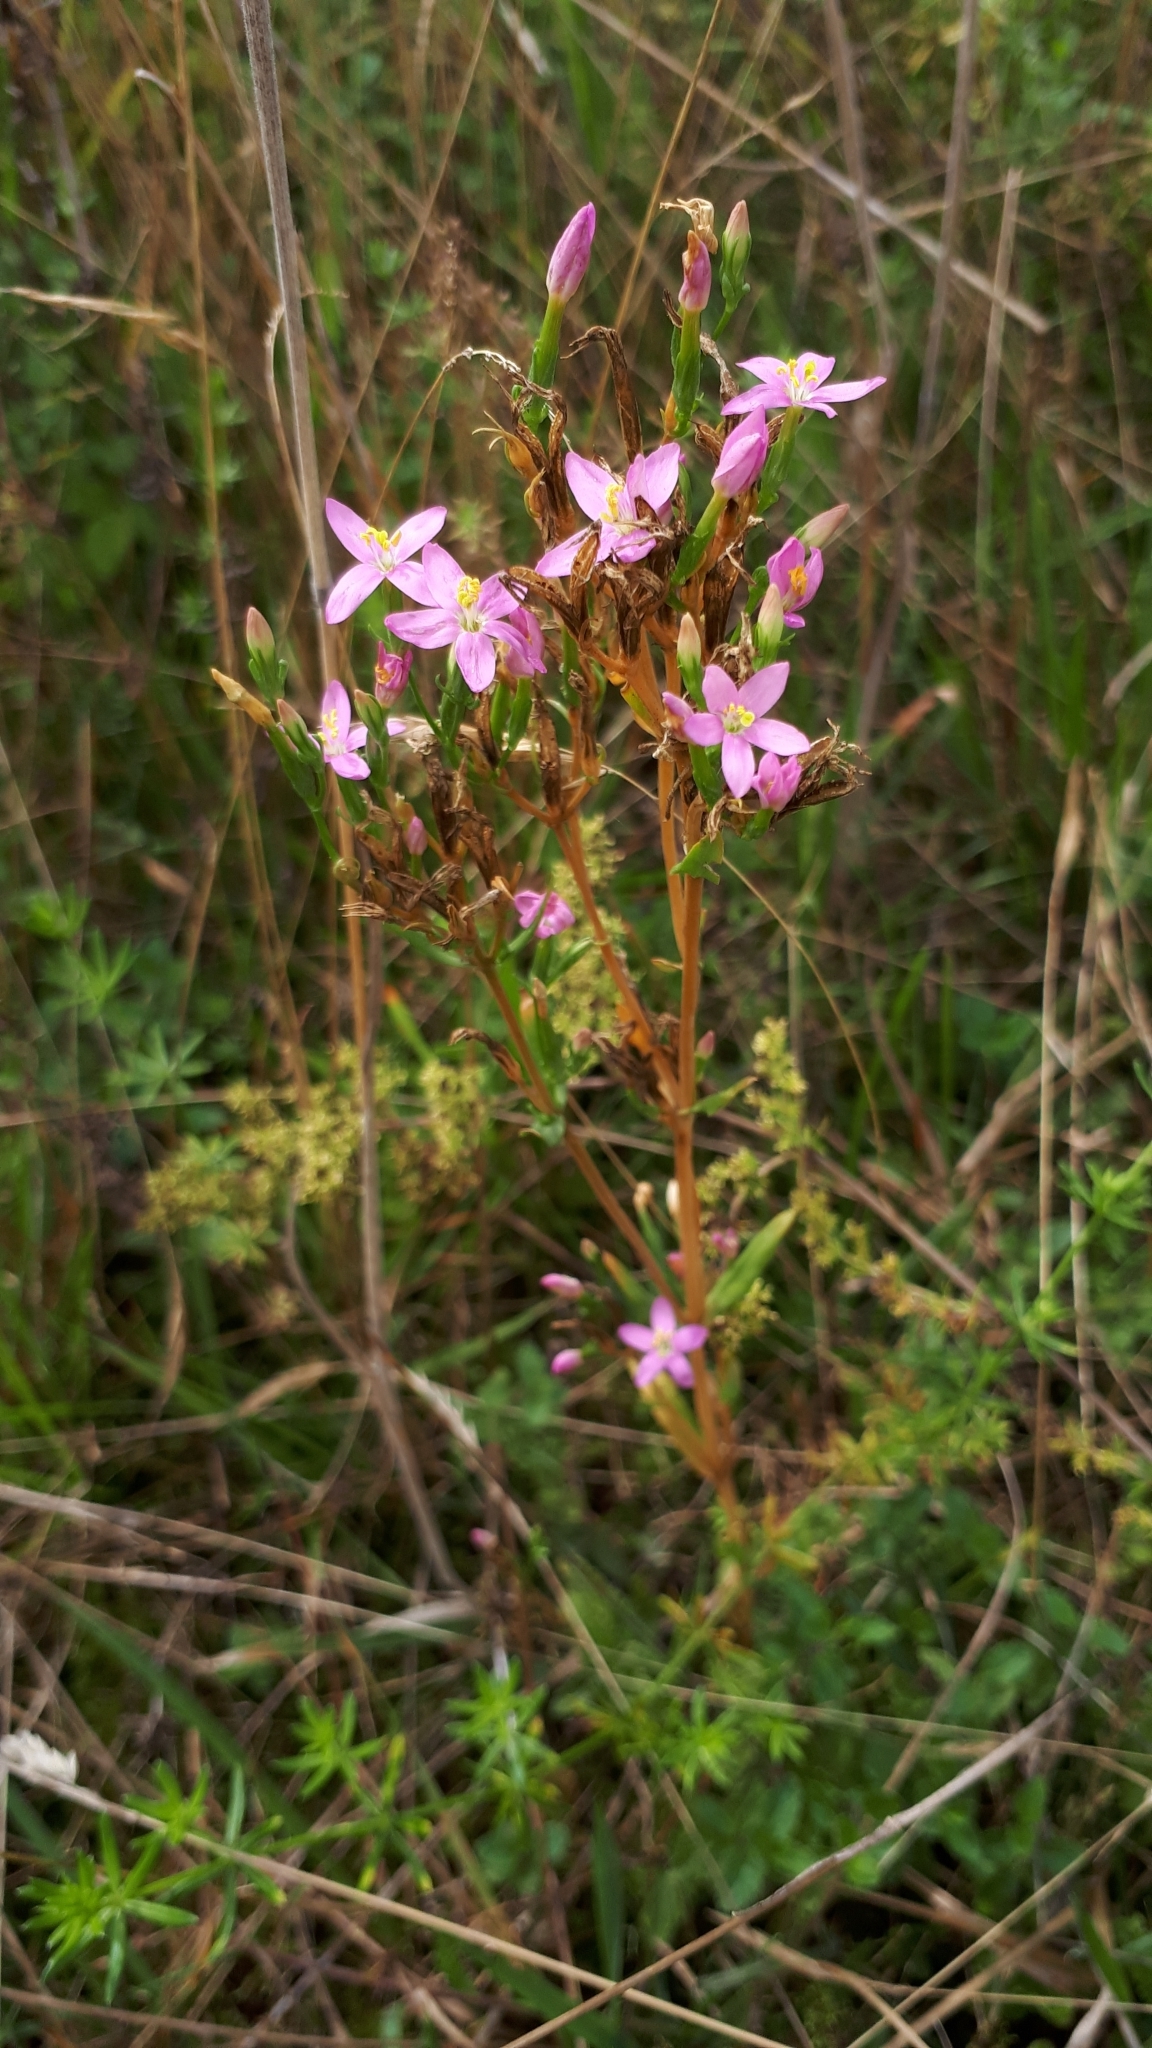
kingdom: Plantae
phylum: Tracheophyta
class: Magnoliopsida
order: Gentianales
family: Gentianaceae
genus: Centaurium
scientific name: Centaurium erythraea
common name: Common centaury
